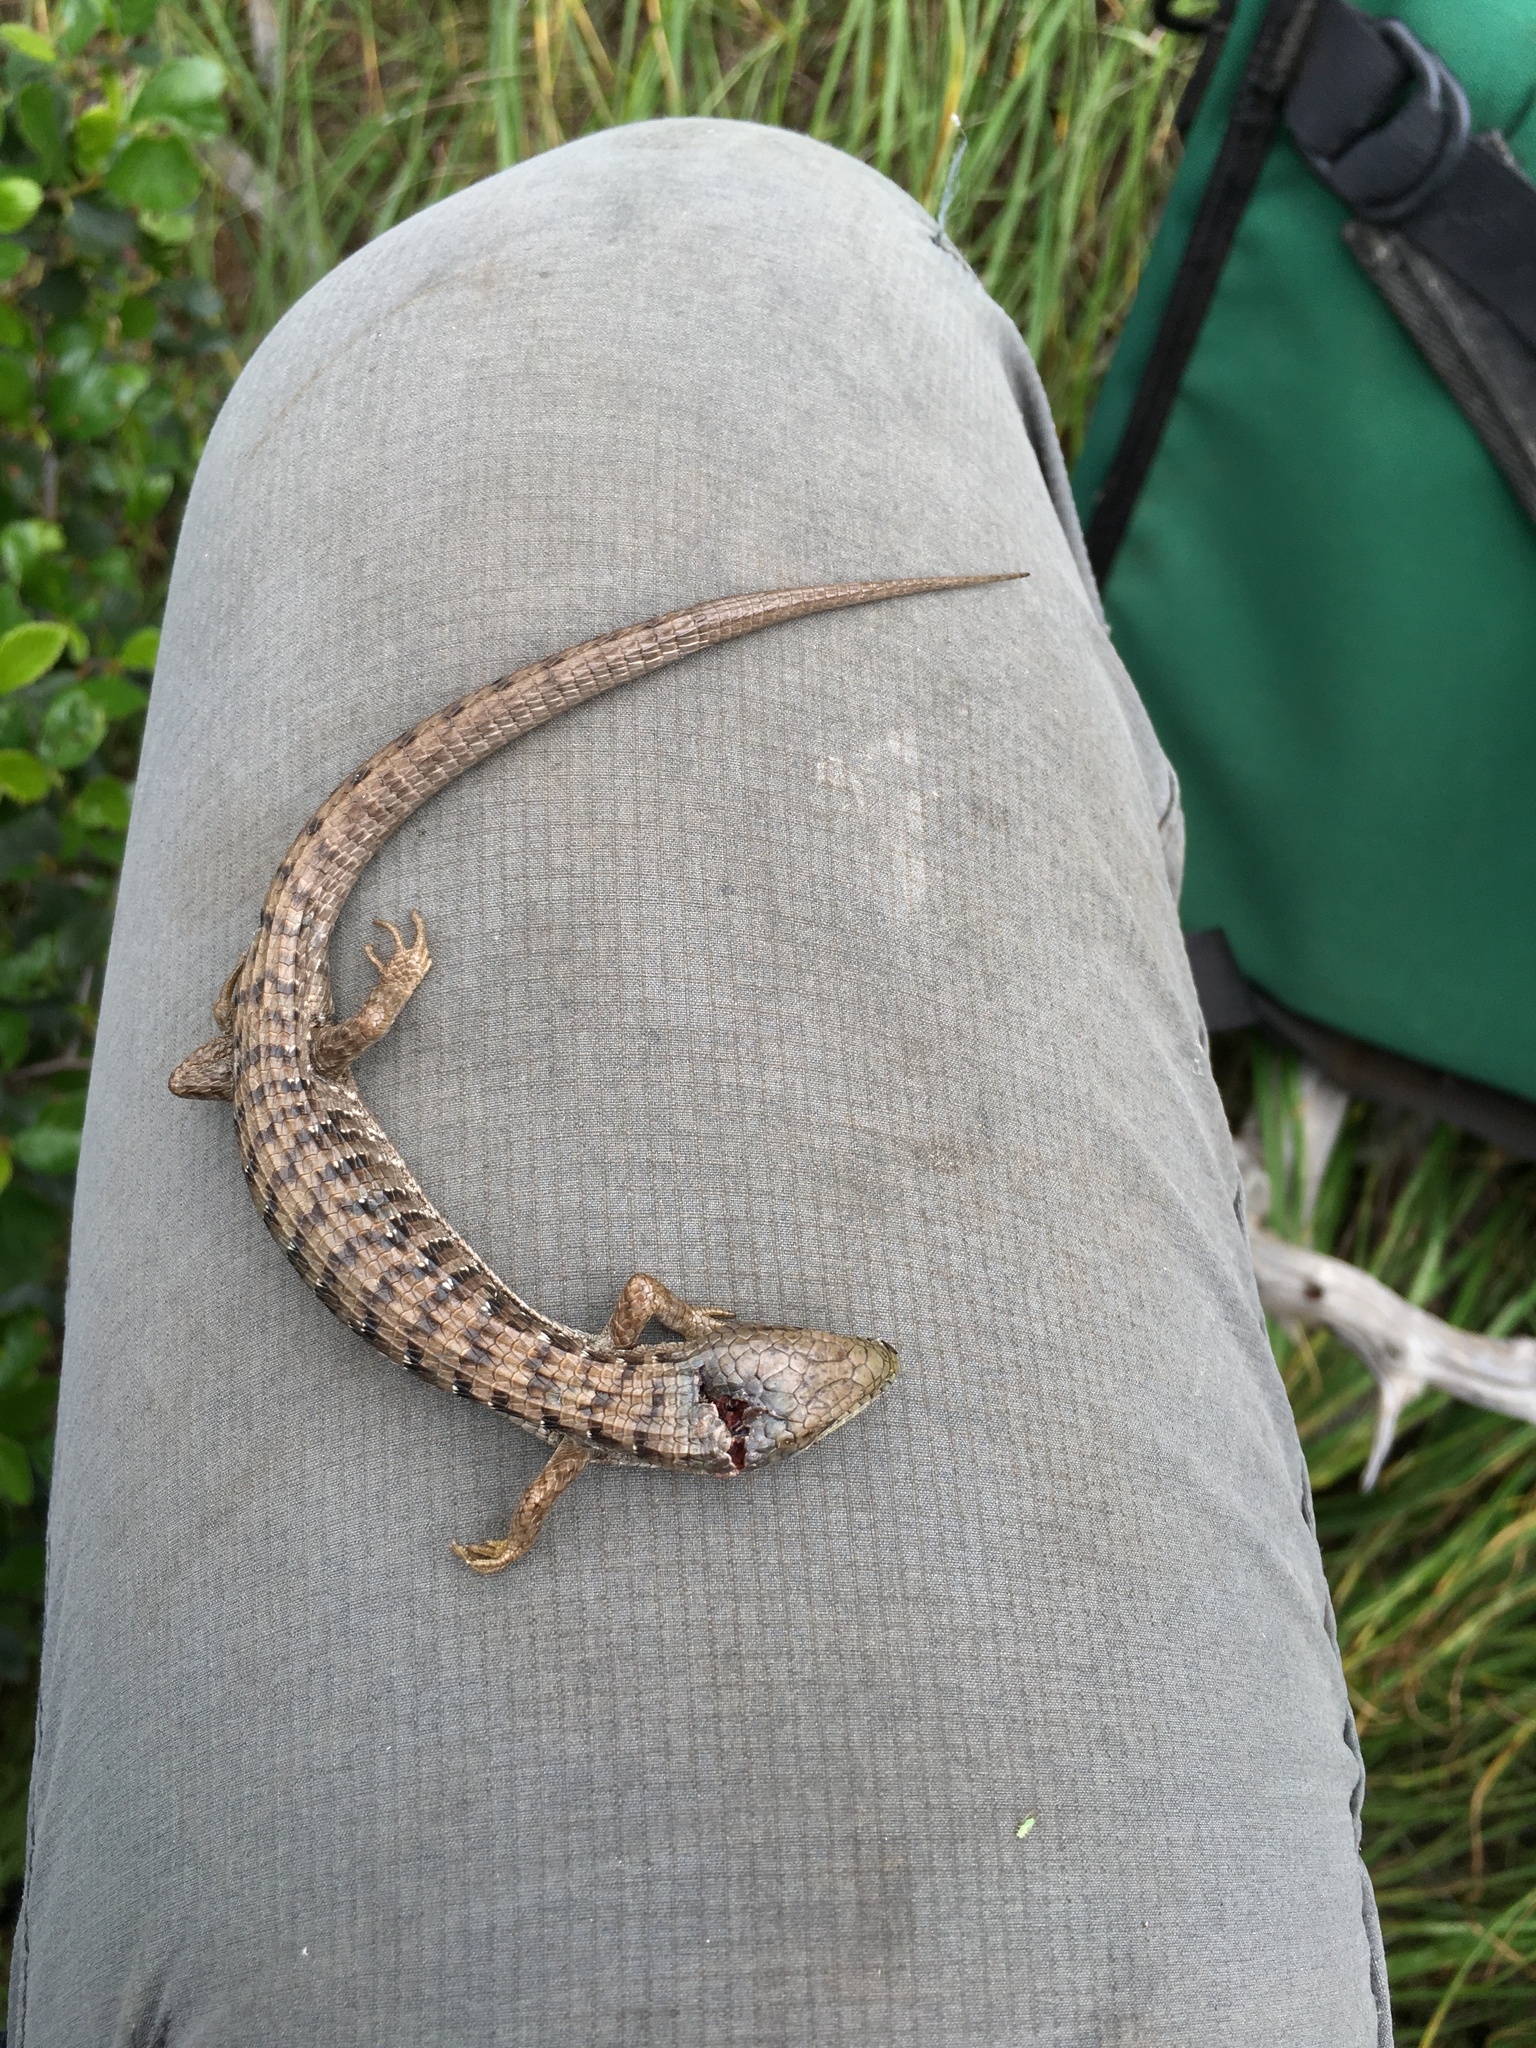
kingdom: Animalia
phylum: Chordata
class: Squamata
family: Anguidae
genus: Elgaria
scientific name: Elgaria multicarinata
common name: Southern alligator lizard
